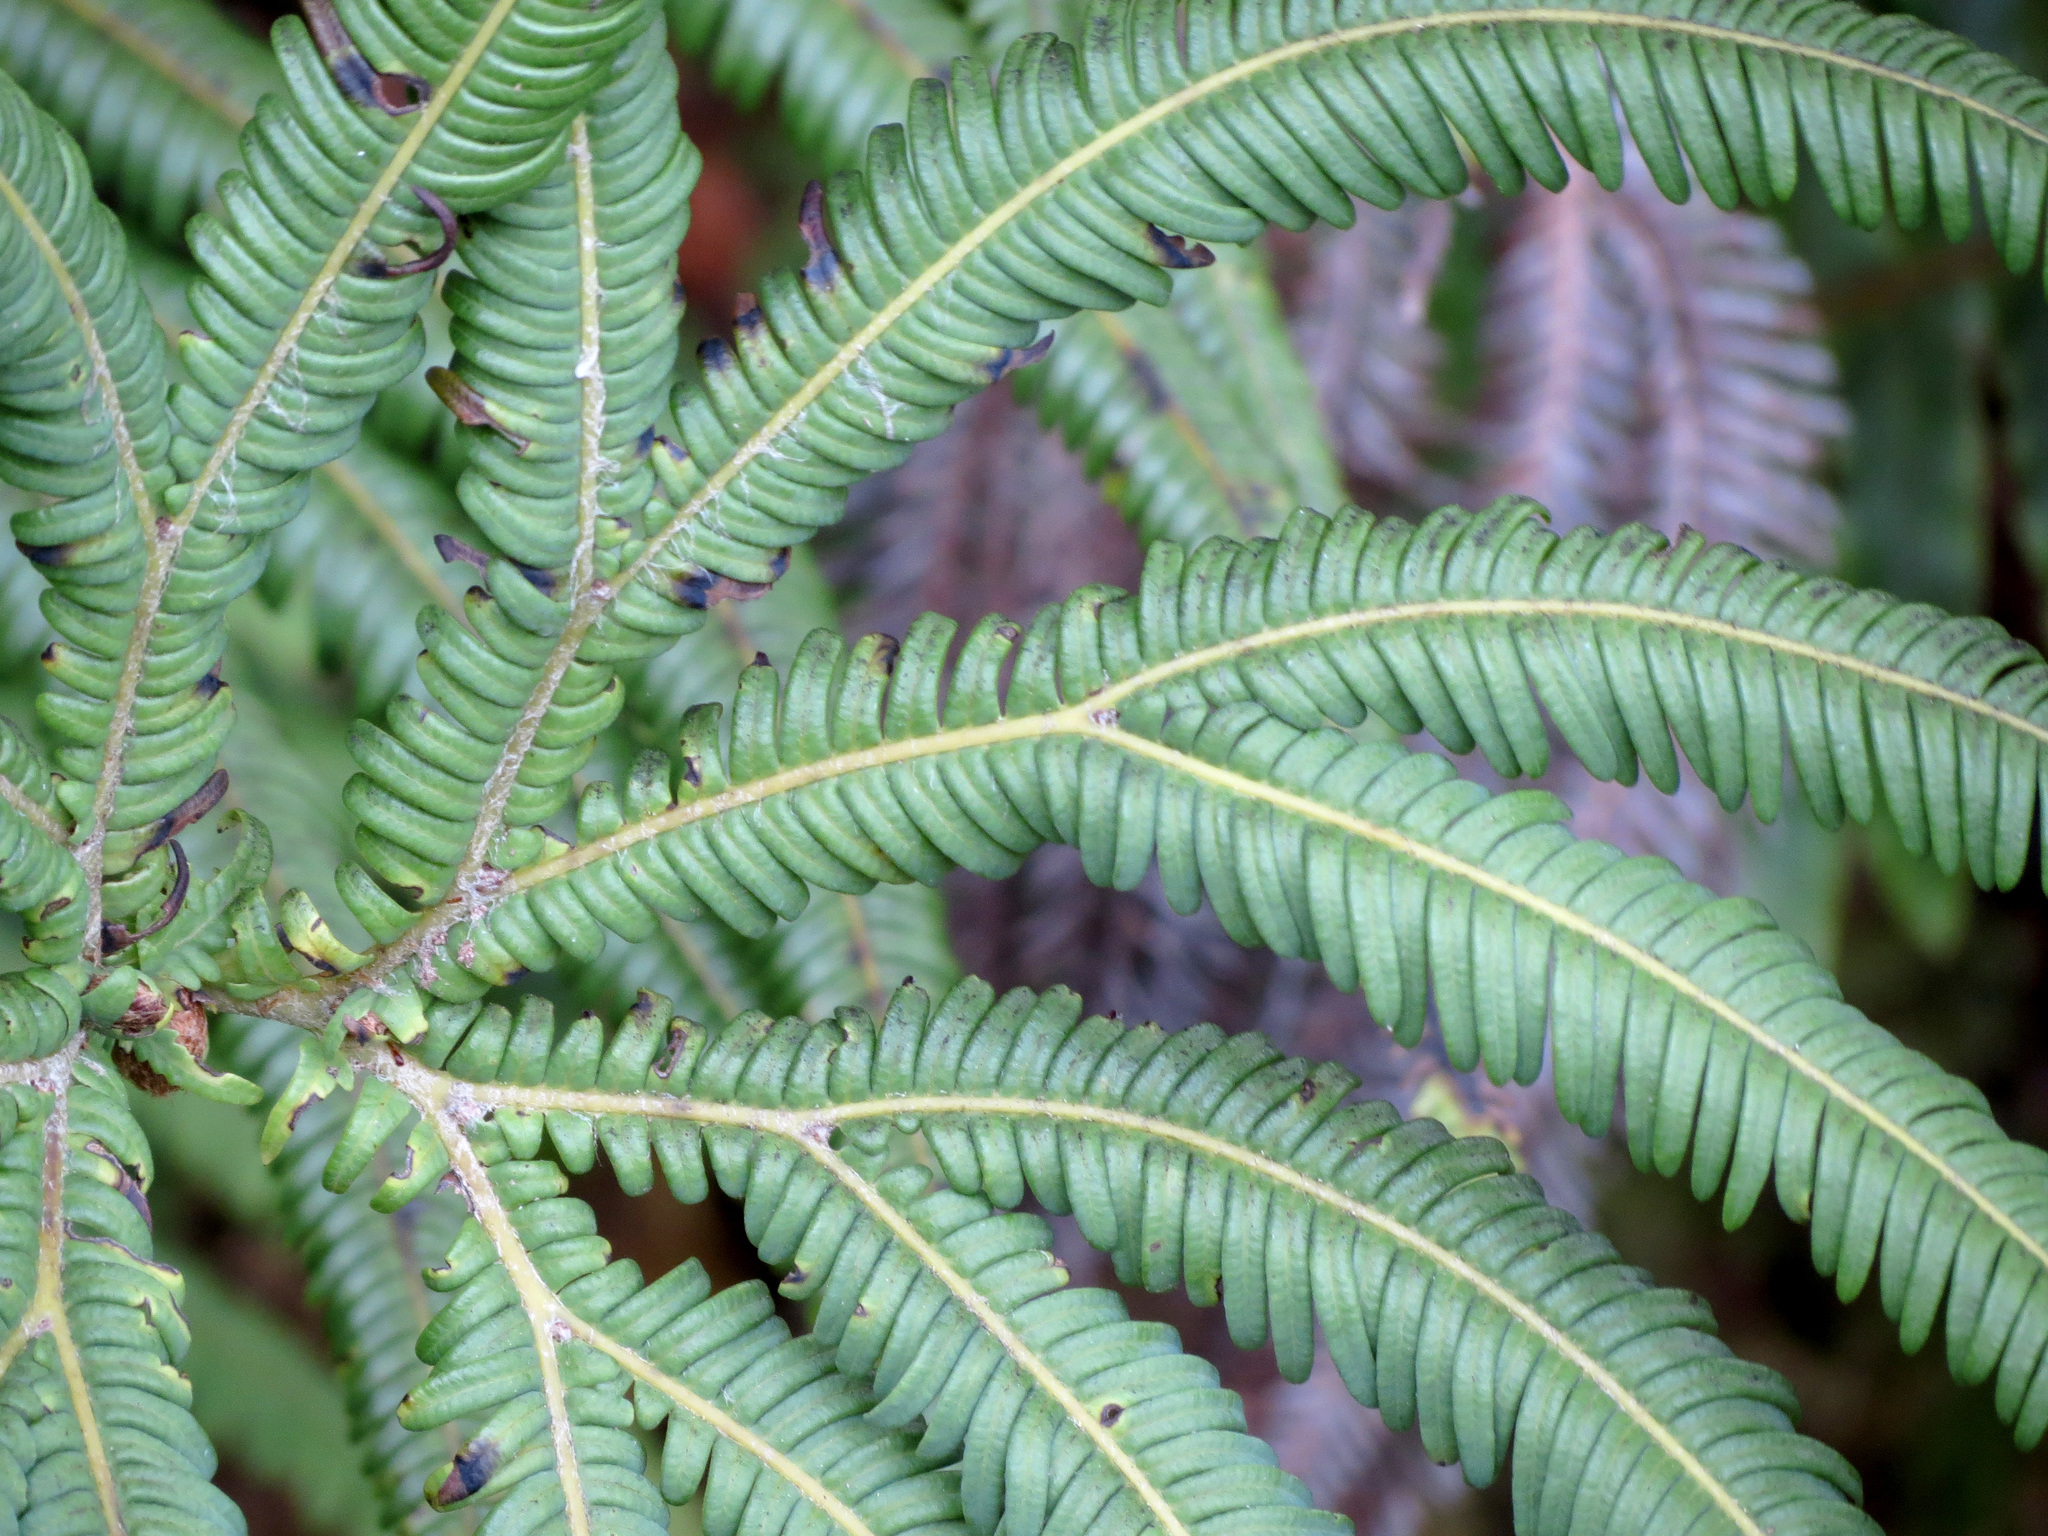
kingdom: Plantae
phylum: Tracheophyta
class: Polypodiopsida
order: Gleicheniales
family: Gleicheniaceae
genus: Sticherus
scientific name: Sticherus cunninghamii
